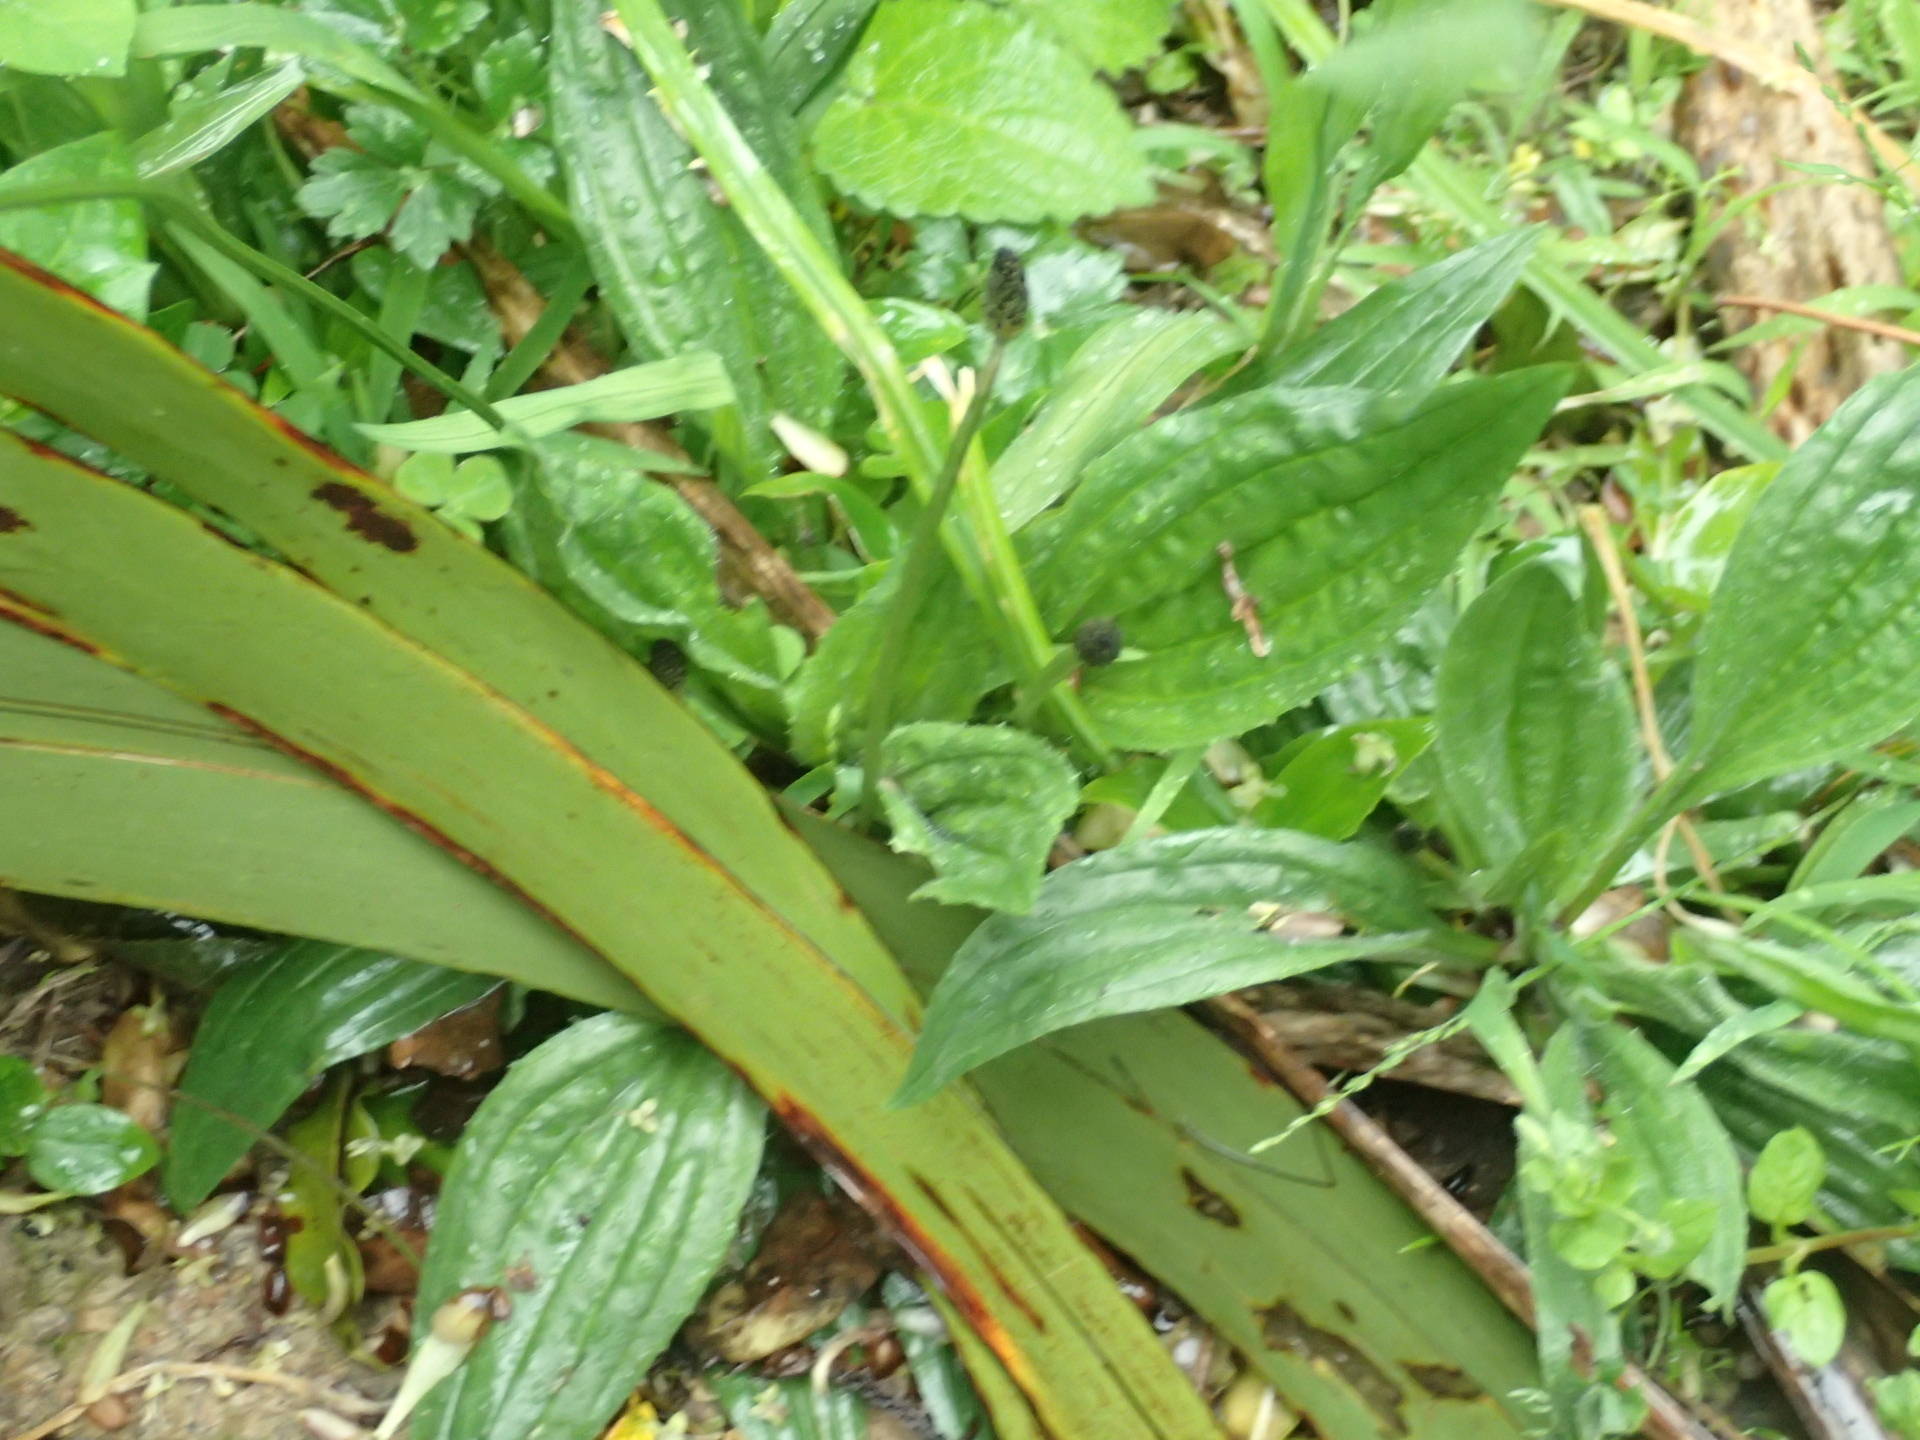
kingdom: Plantae
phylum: Tracheophyta
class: Magnoliopsida
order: Lamiales
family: Plantaginaceae
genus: Plantago
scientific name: Plantago lanceolata
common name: Ribwort plantain
